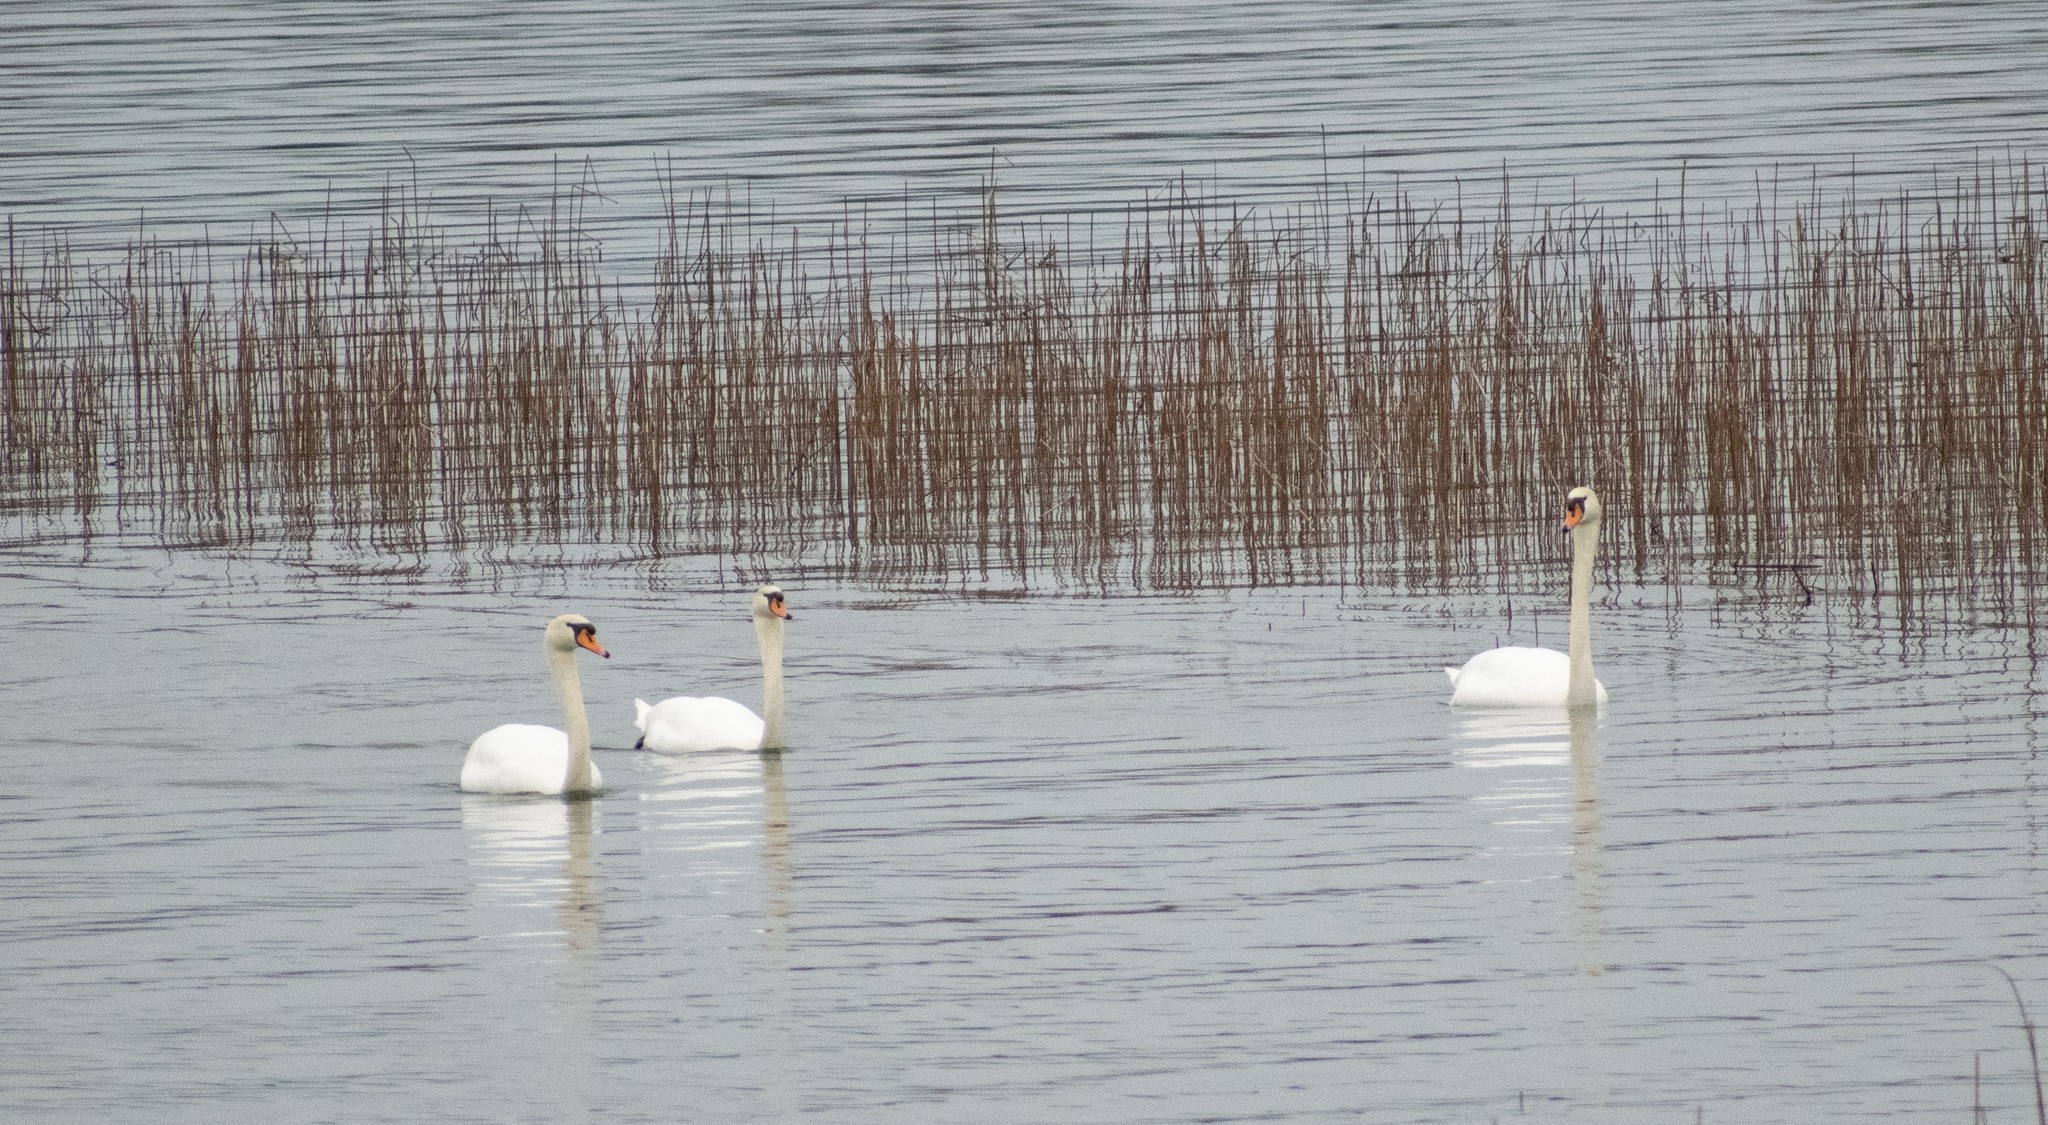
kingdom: Animalia
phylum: Chordata
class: Aves
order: Anseriformes
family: Anatidae
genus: Cygnus
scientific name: Cygnus olor
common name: Mute swan
